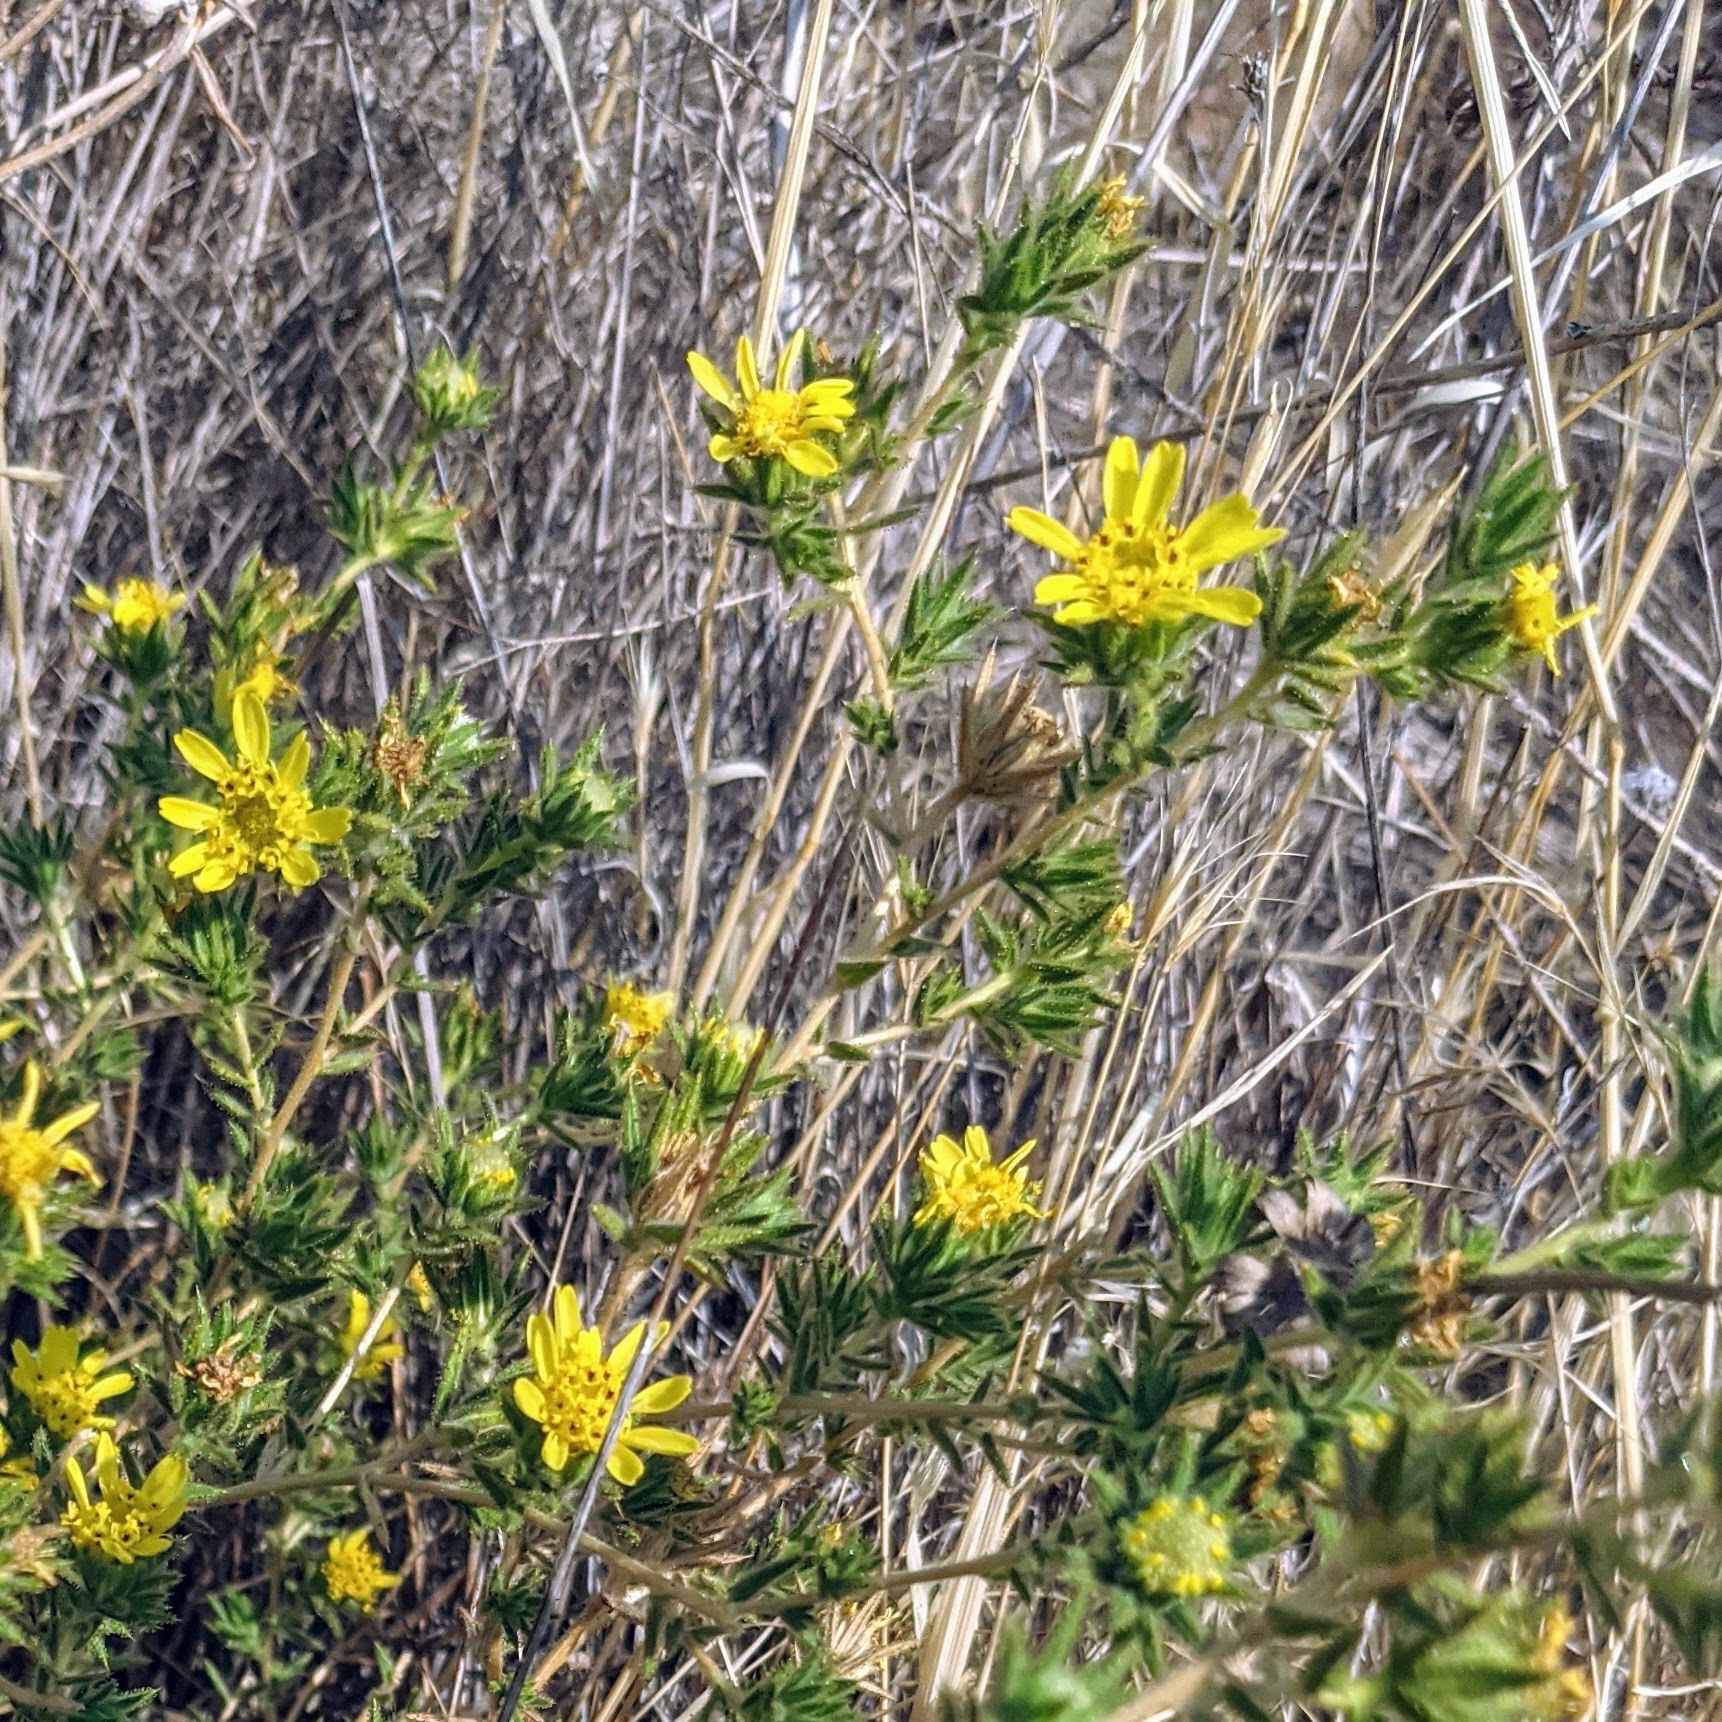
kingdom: Plantae
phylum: Tracheophyta
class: Magnoliopsida
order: Asterales
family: Asteraceae
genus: Centromadia
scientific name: Centromadia fitchii
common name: Fitch's spikeweed
